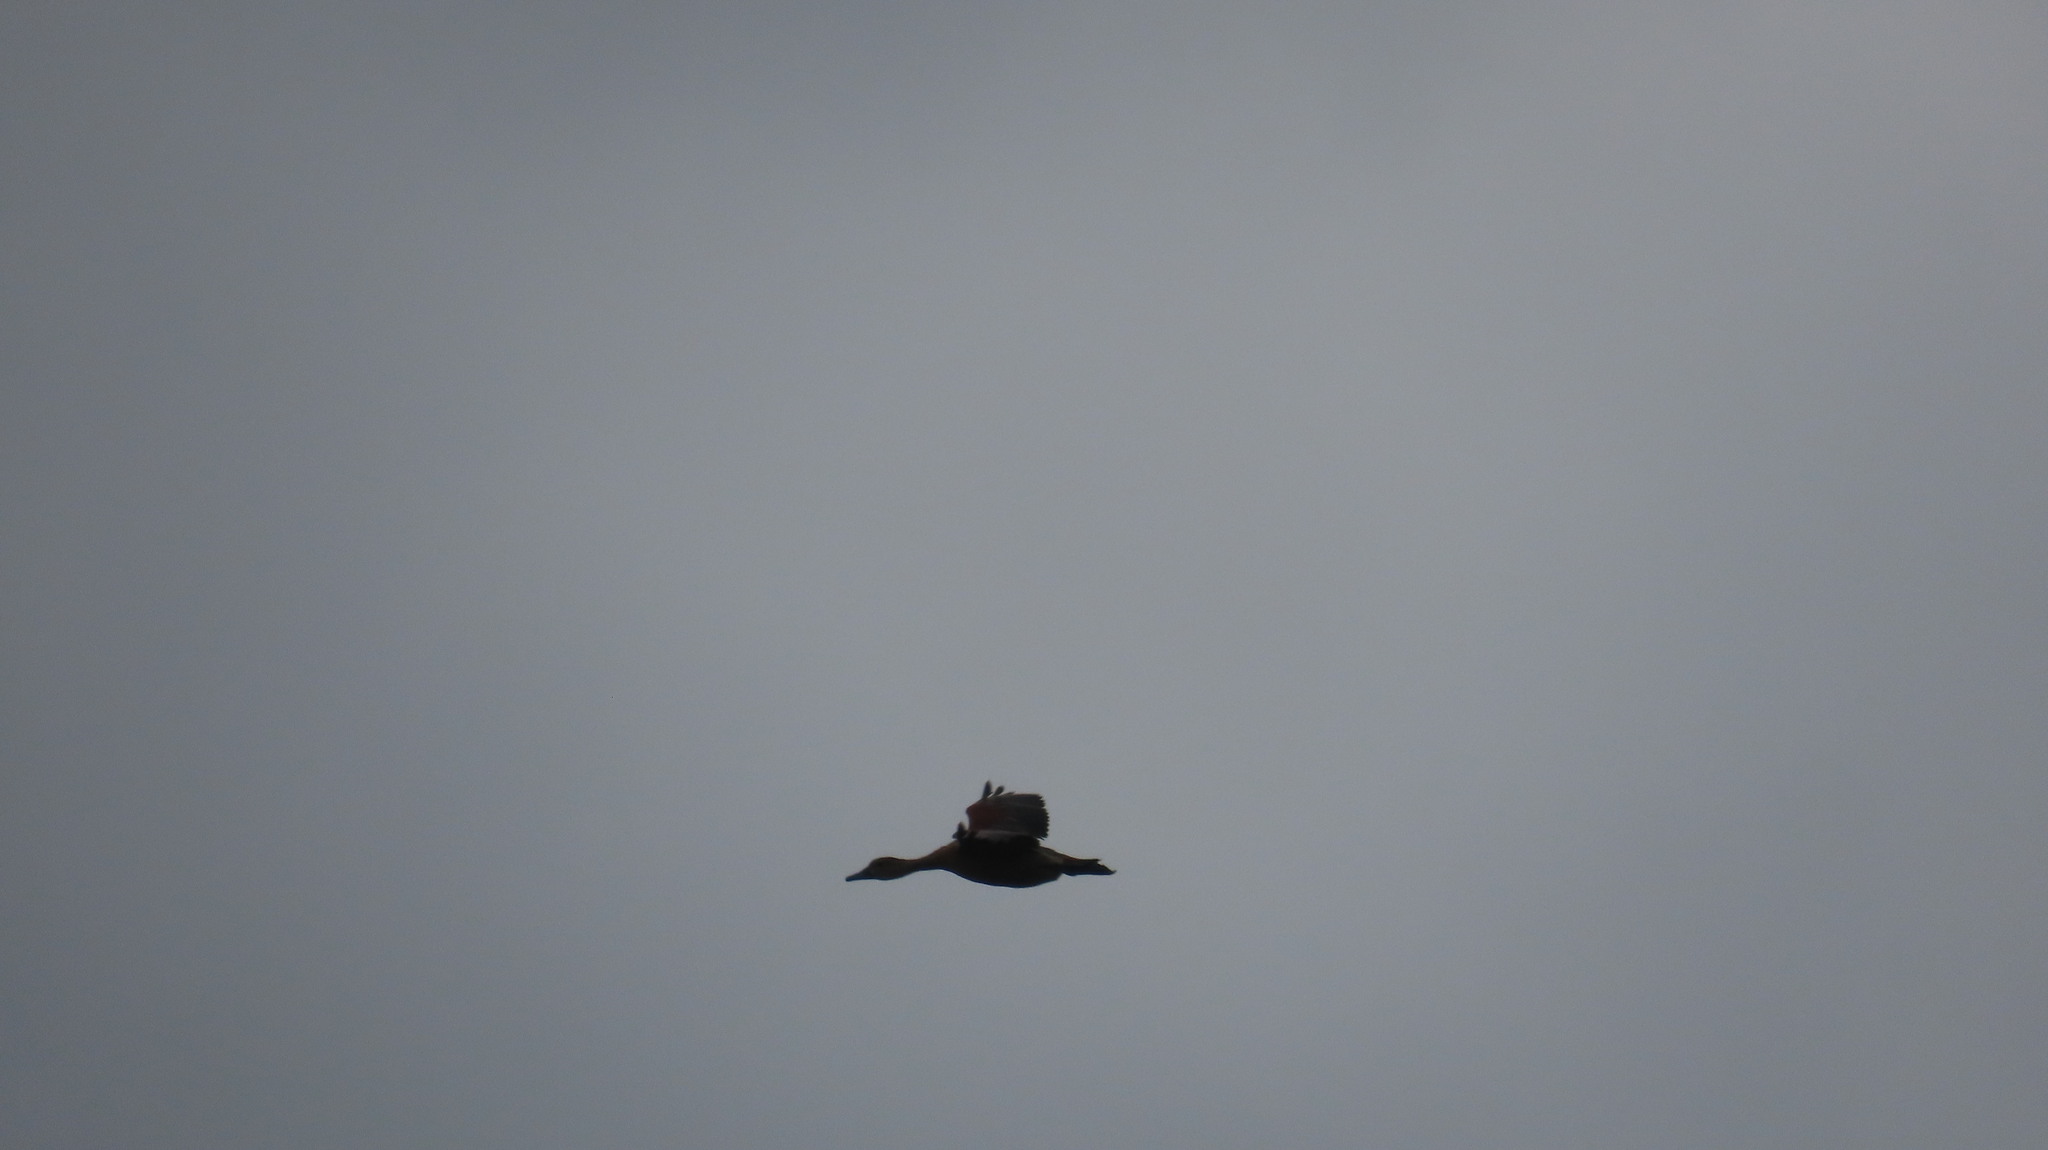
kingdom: Animalia
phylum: Chordata
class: Aves
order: Anseriformes
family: Anatidae
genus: Dendrocygna
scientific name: Dendrocygna javanica
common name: Lesser whistling-duck
